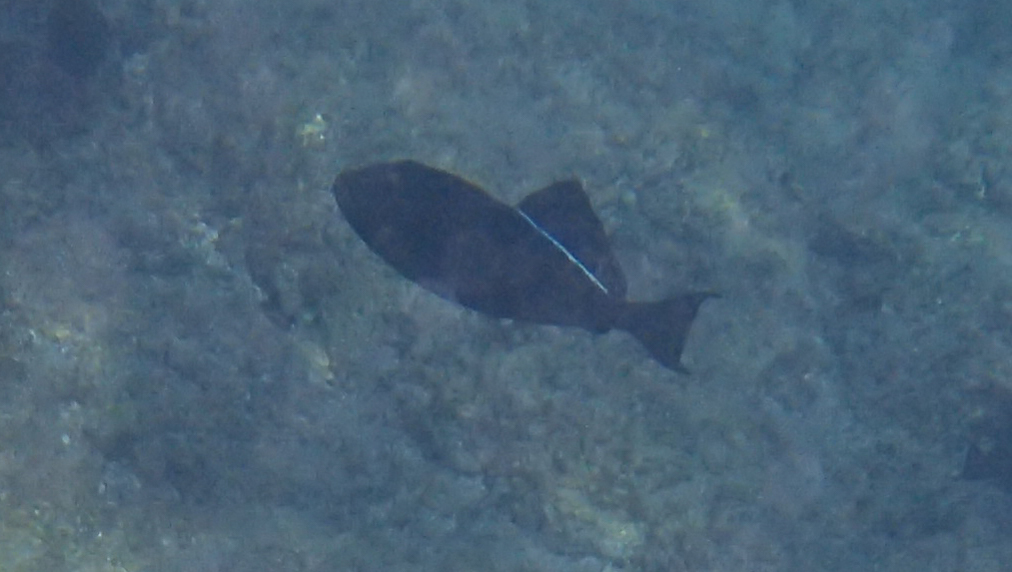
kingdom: Animalia
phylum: Chordata
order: Tetraodontiformes
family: Balistidae
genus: Melichthys
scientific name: Melichthys niger
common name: Black durgon
